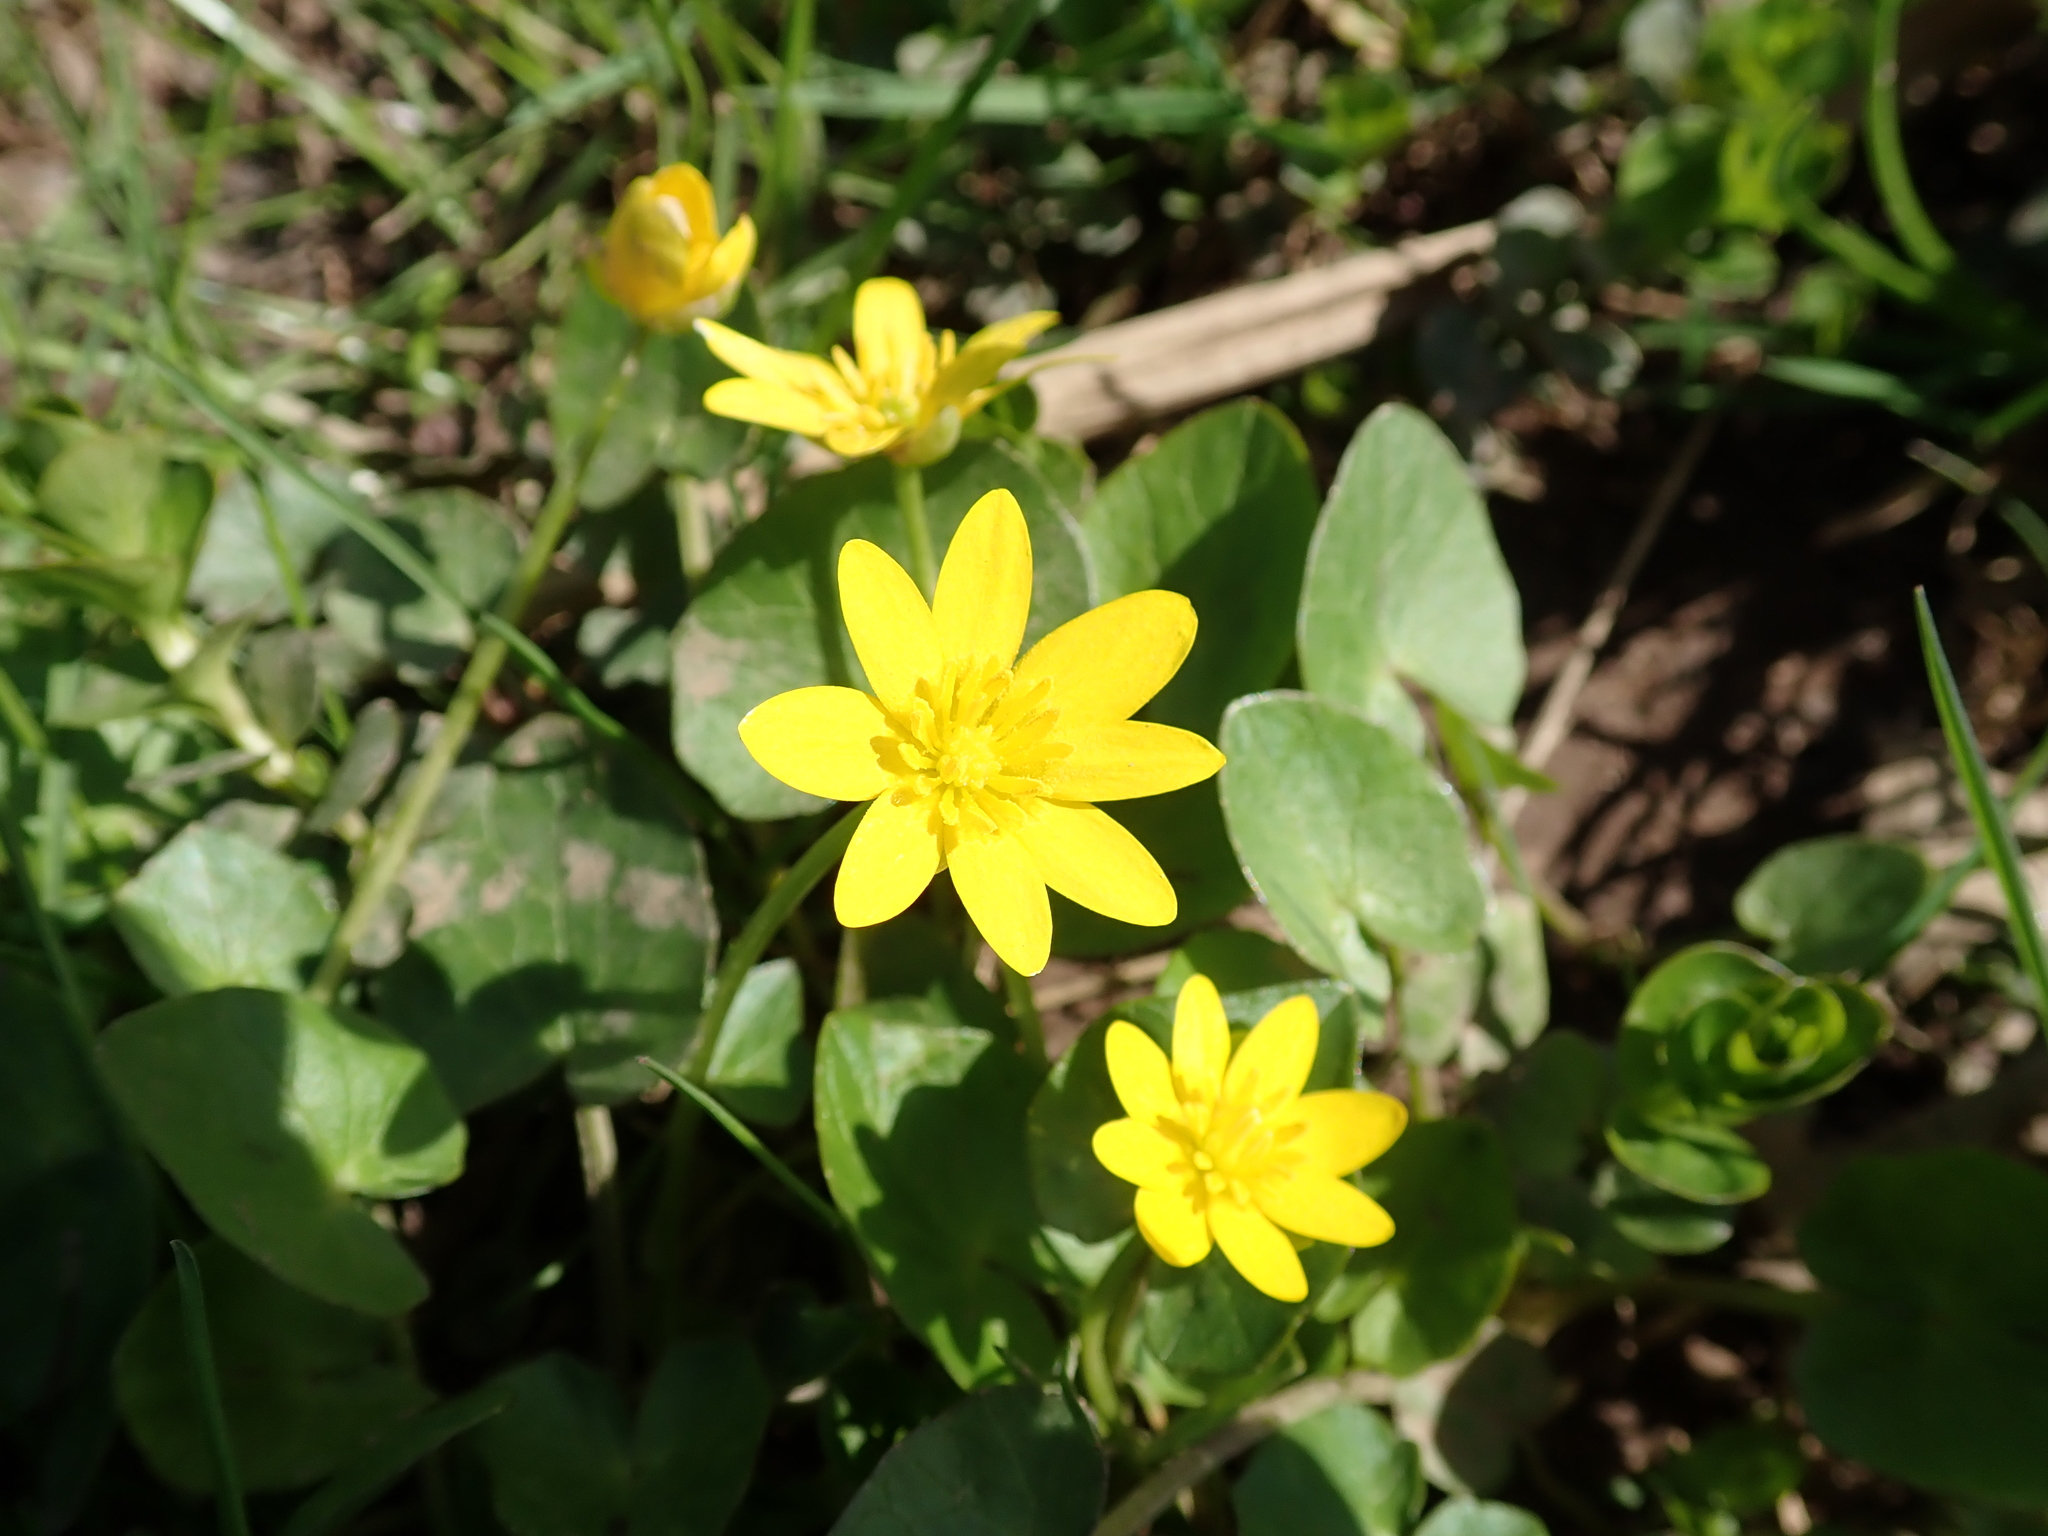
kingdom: Plantae
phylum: Tracheophyta
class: Magnoliopsida
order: Ranunculales
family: Ranunculaceae
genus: Ficaria
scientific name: Ficaria verna
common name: Lesser celandine
